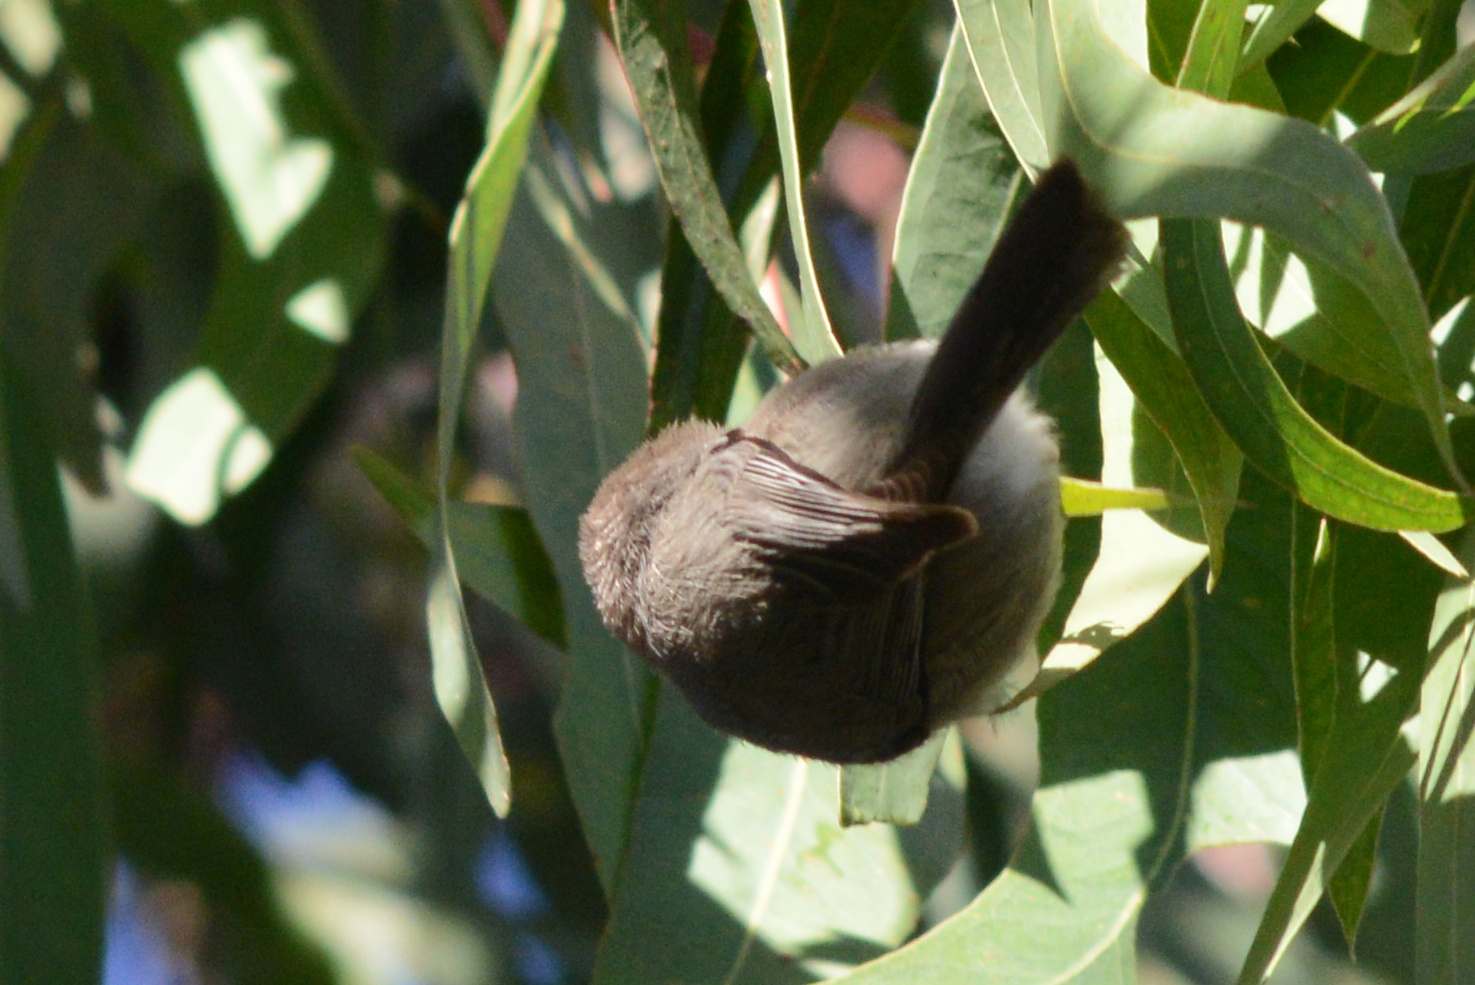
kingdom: Animalia
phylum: Chordata
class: Aves
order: Passeriformes
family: Aegithalidae
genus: Psaltriparus
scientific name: Psaltriparus minimus
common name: American bushtit
